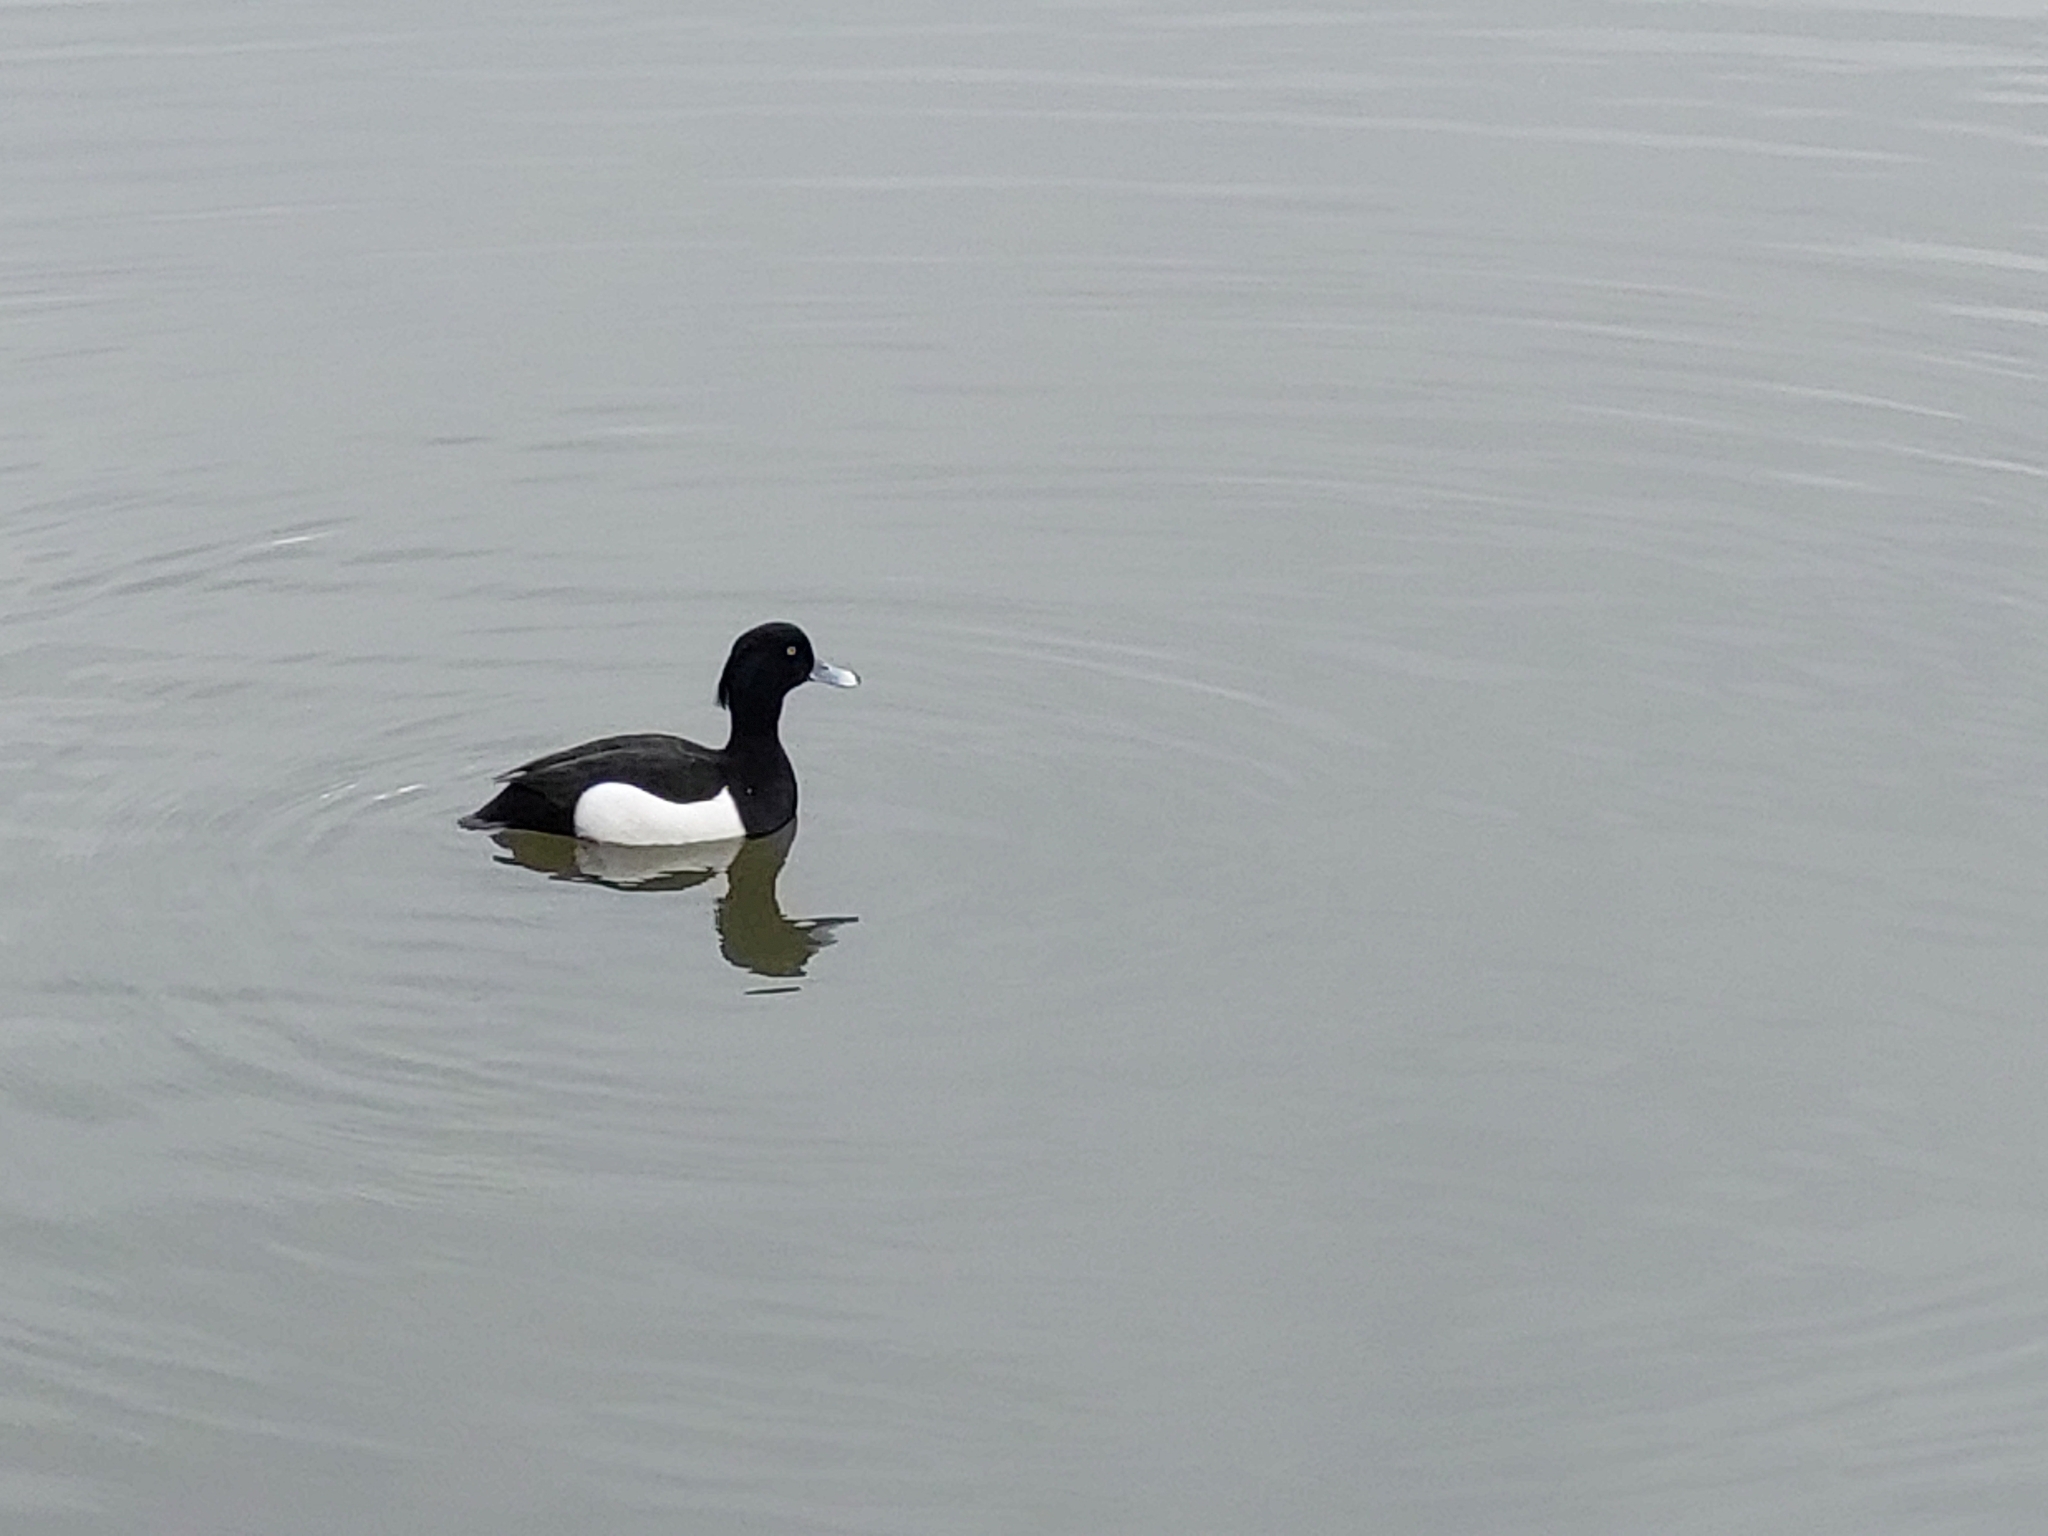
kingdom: Animalia
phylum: Chordata
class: Aves
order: Anseriformes
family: Anatidae
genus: Aythya
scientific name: Aythya fuligula
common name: Tufted duck
